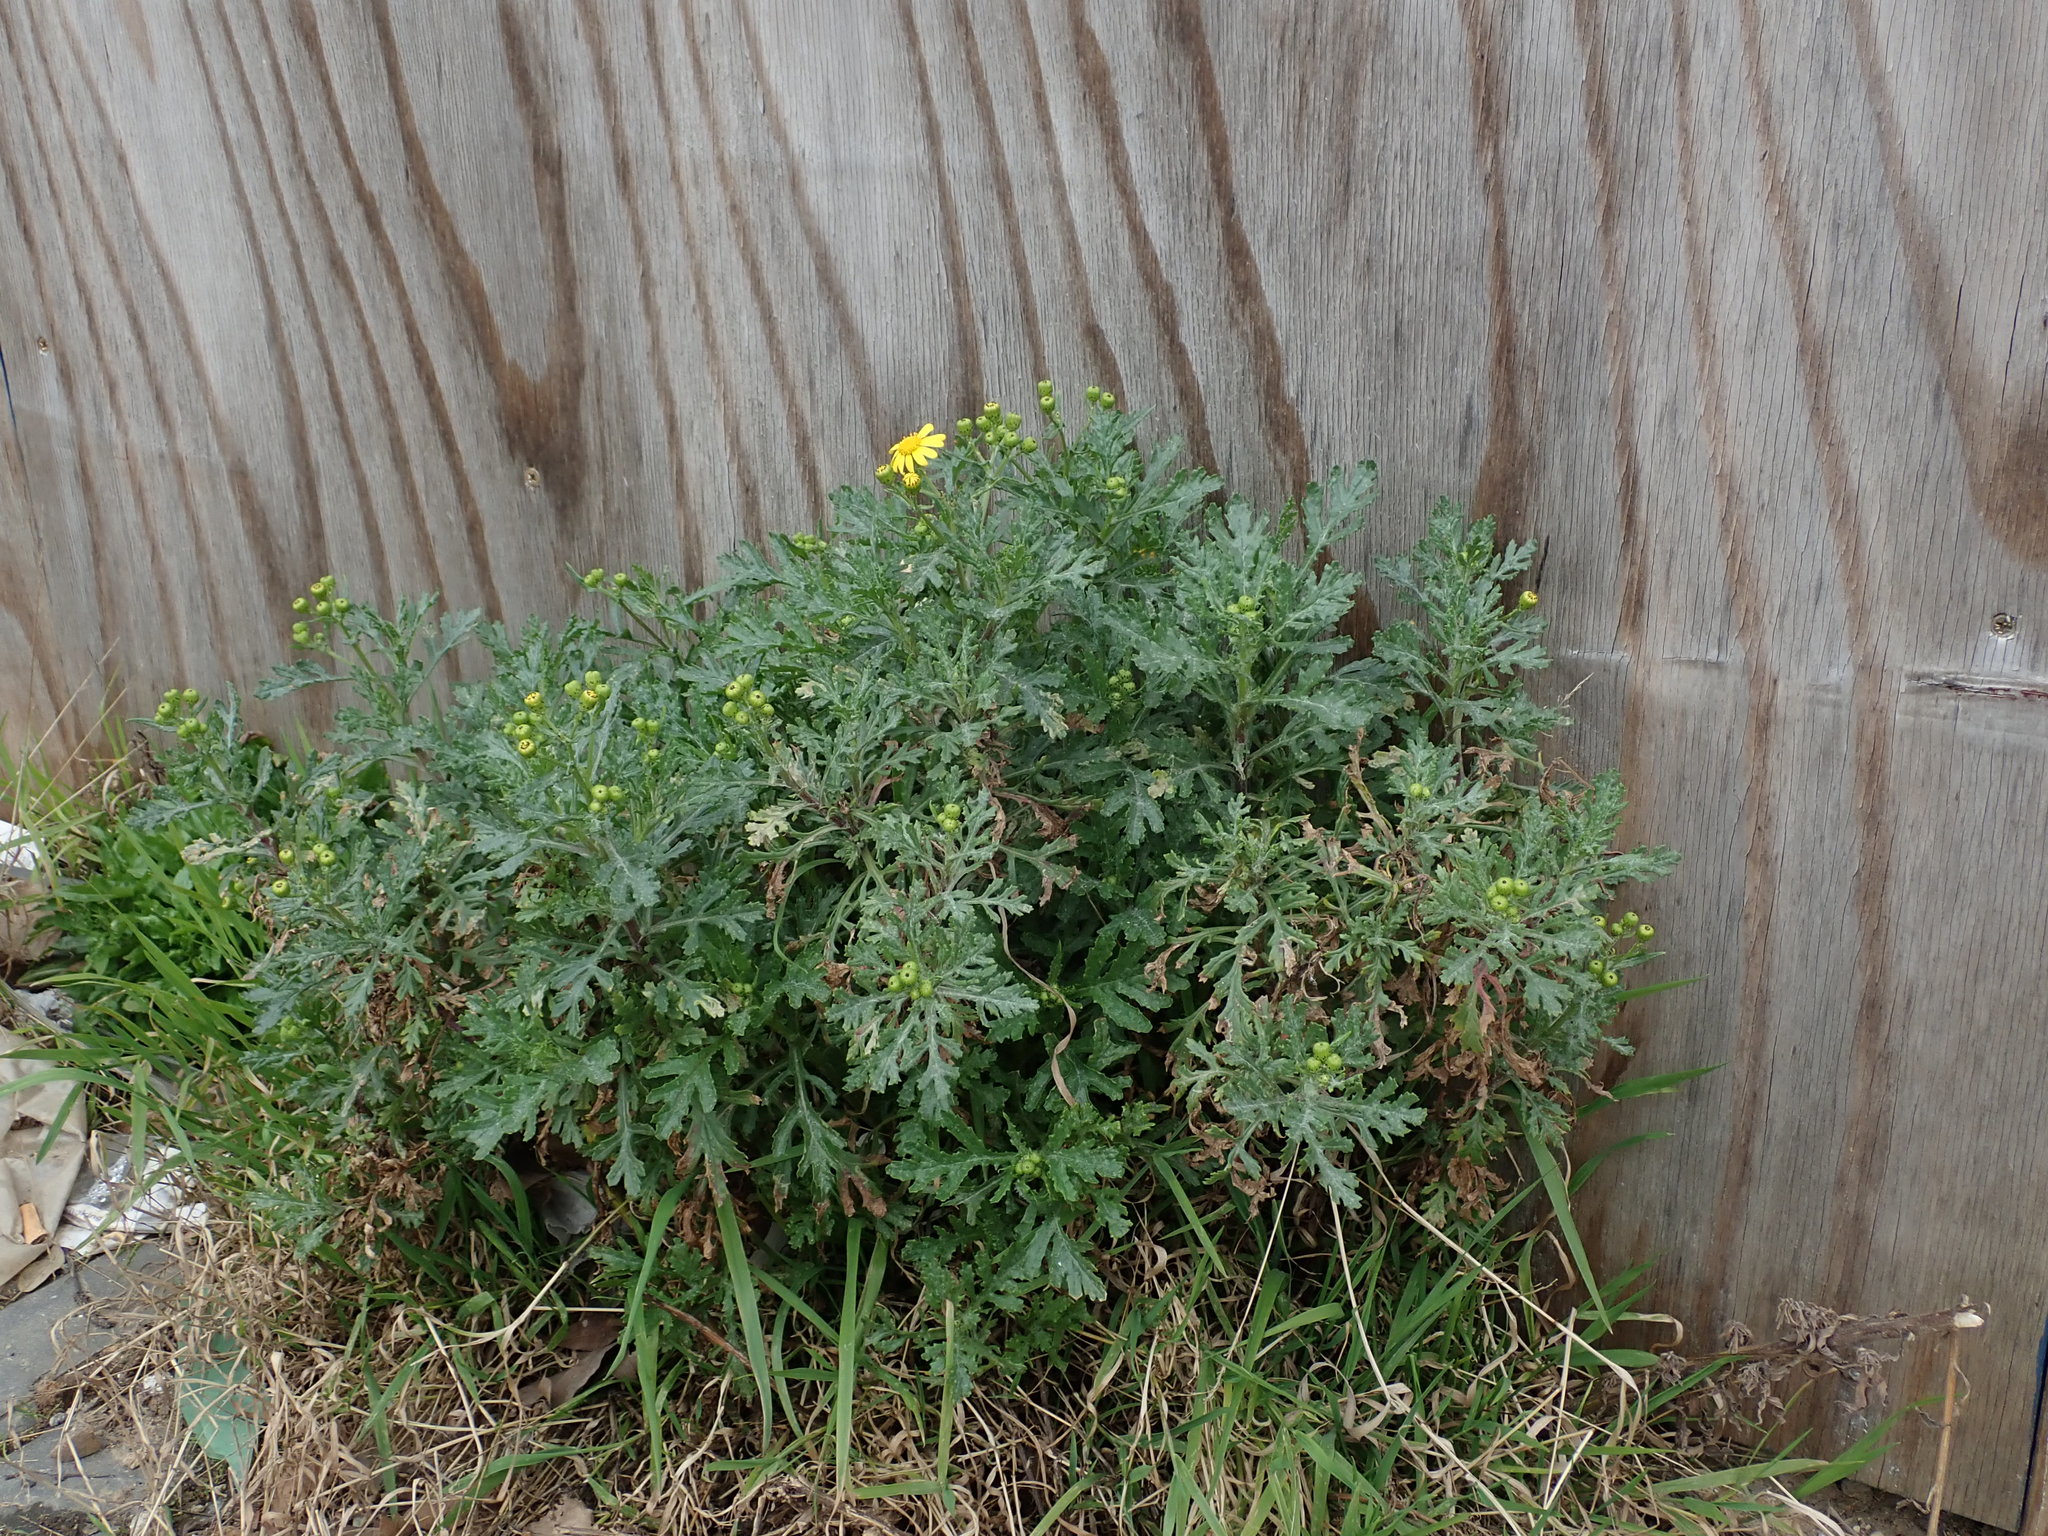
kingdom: Plantae
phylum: Tracheophyta
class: Magnoliopsida
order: Asterales
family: Asteraceae
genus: Senecio
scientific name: Senecio squalidus
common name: Oxford ragwort
